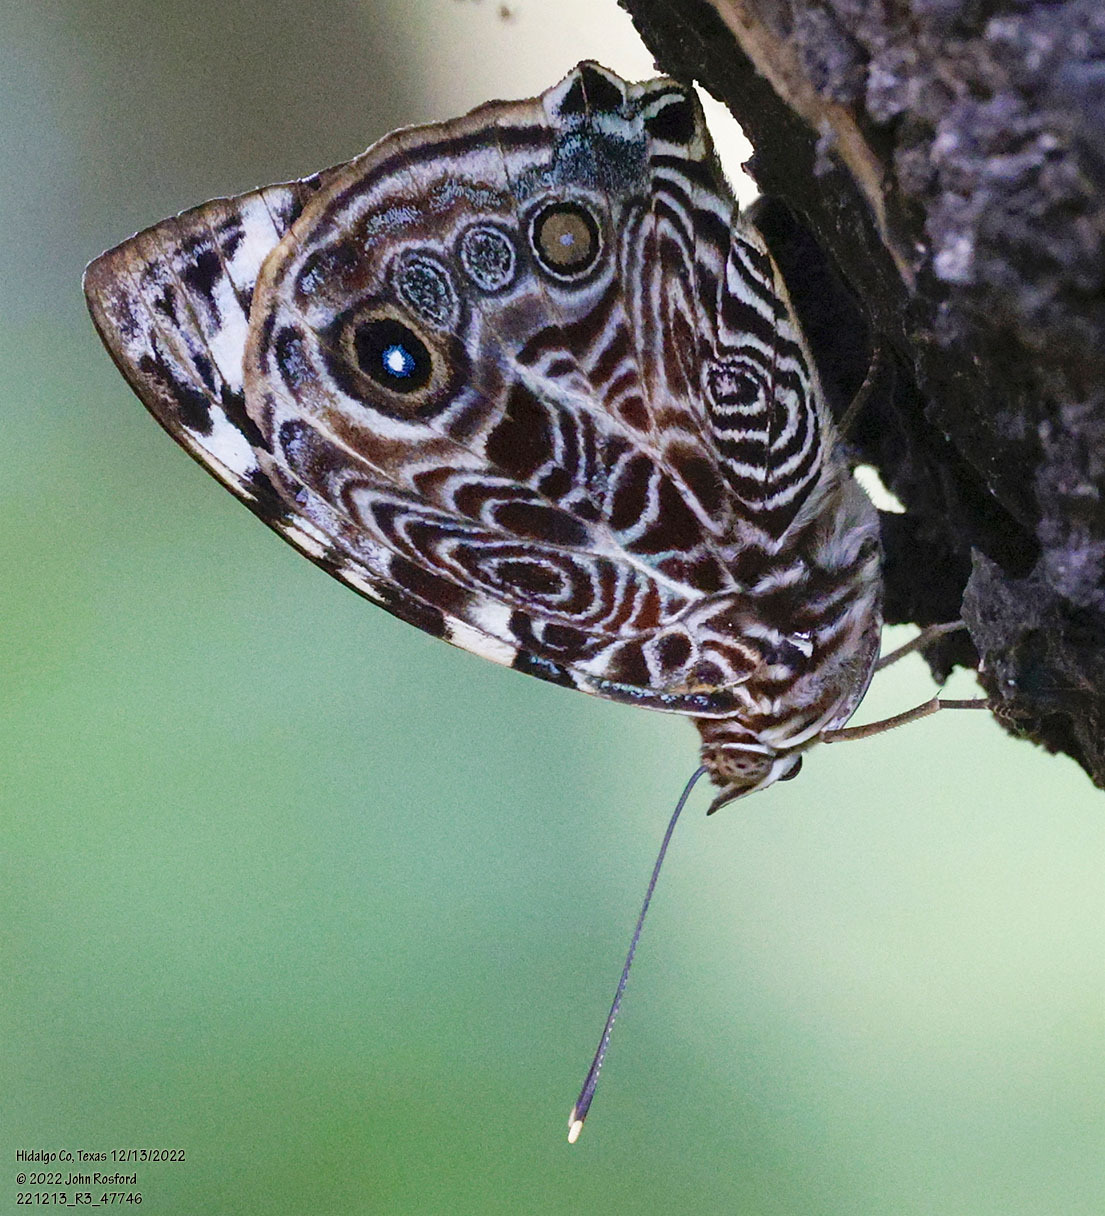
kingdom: Animalia
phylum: Arthropoda
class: Insecta
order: Lepidoptera
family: Nymphalidae
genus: Smyrna
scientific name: Smyrna blomfildia
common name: Blomfild's beauty
